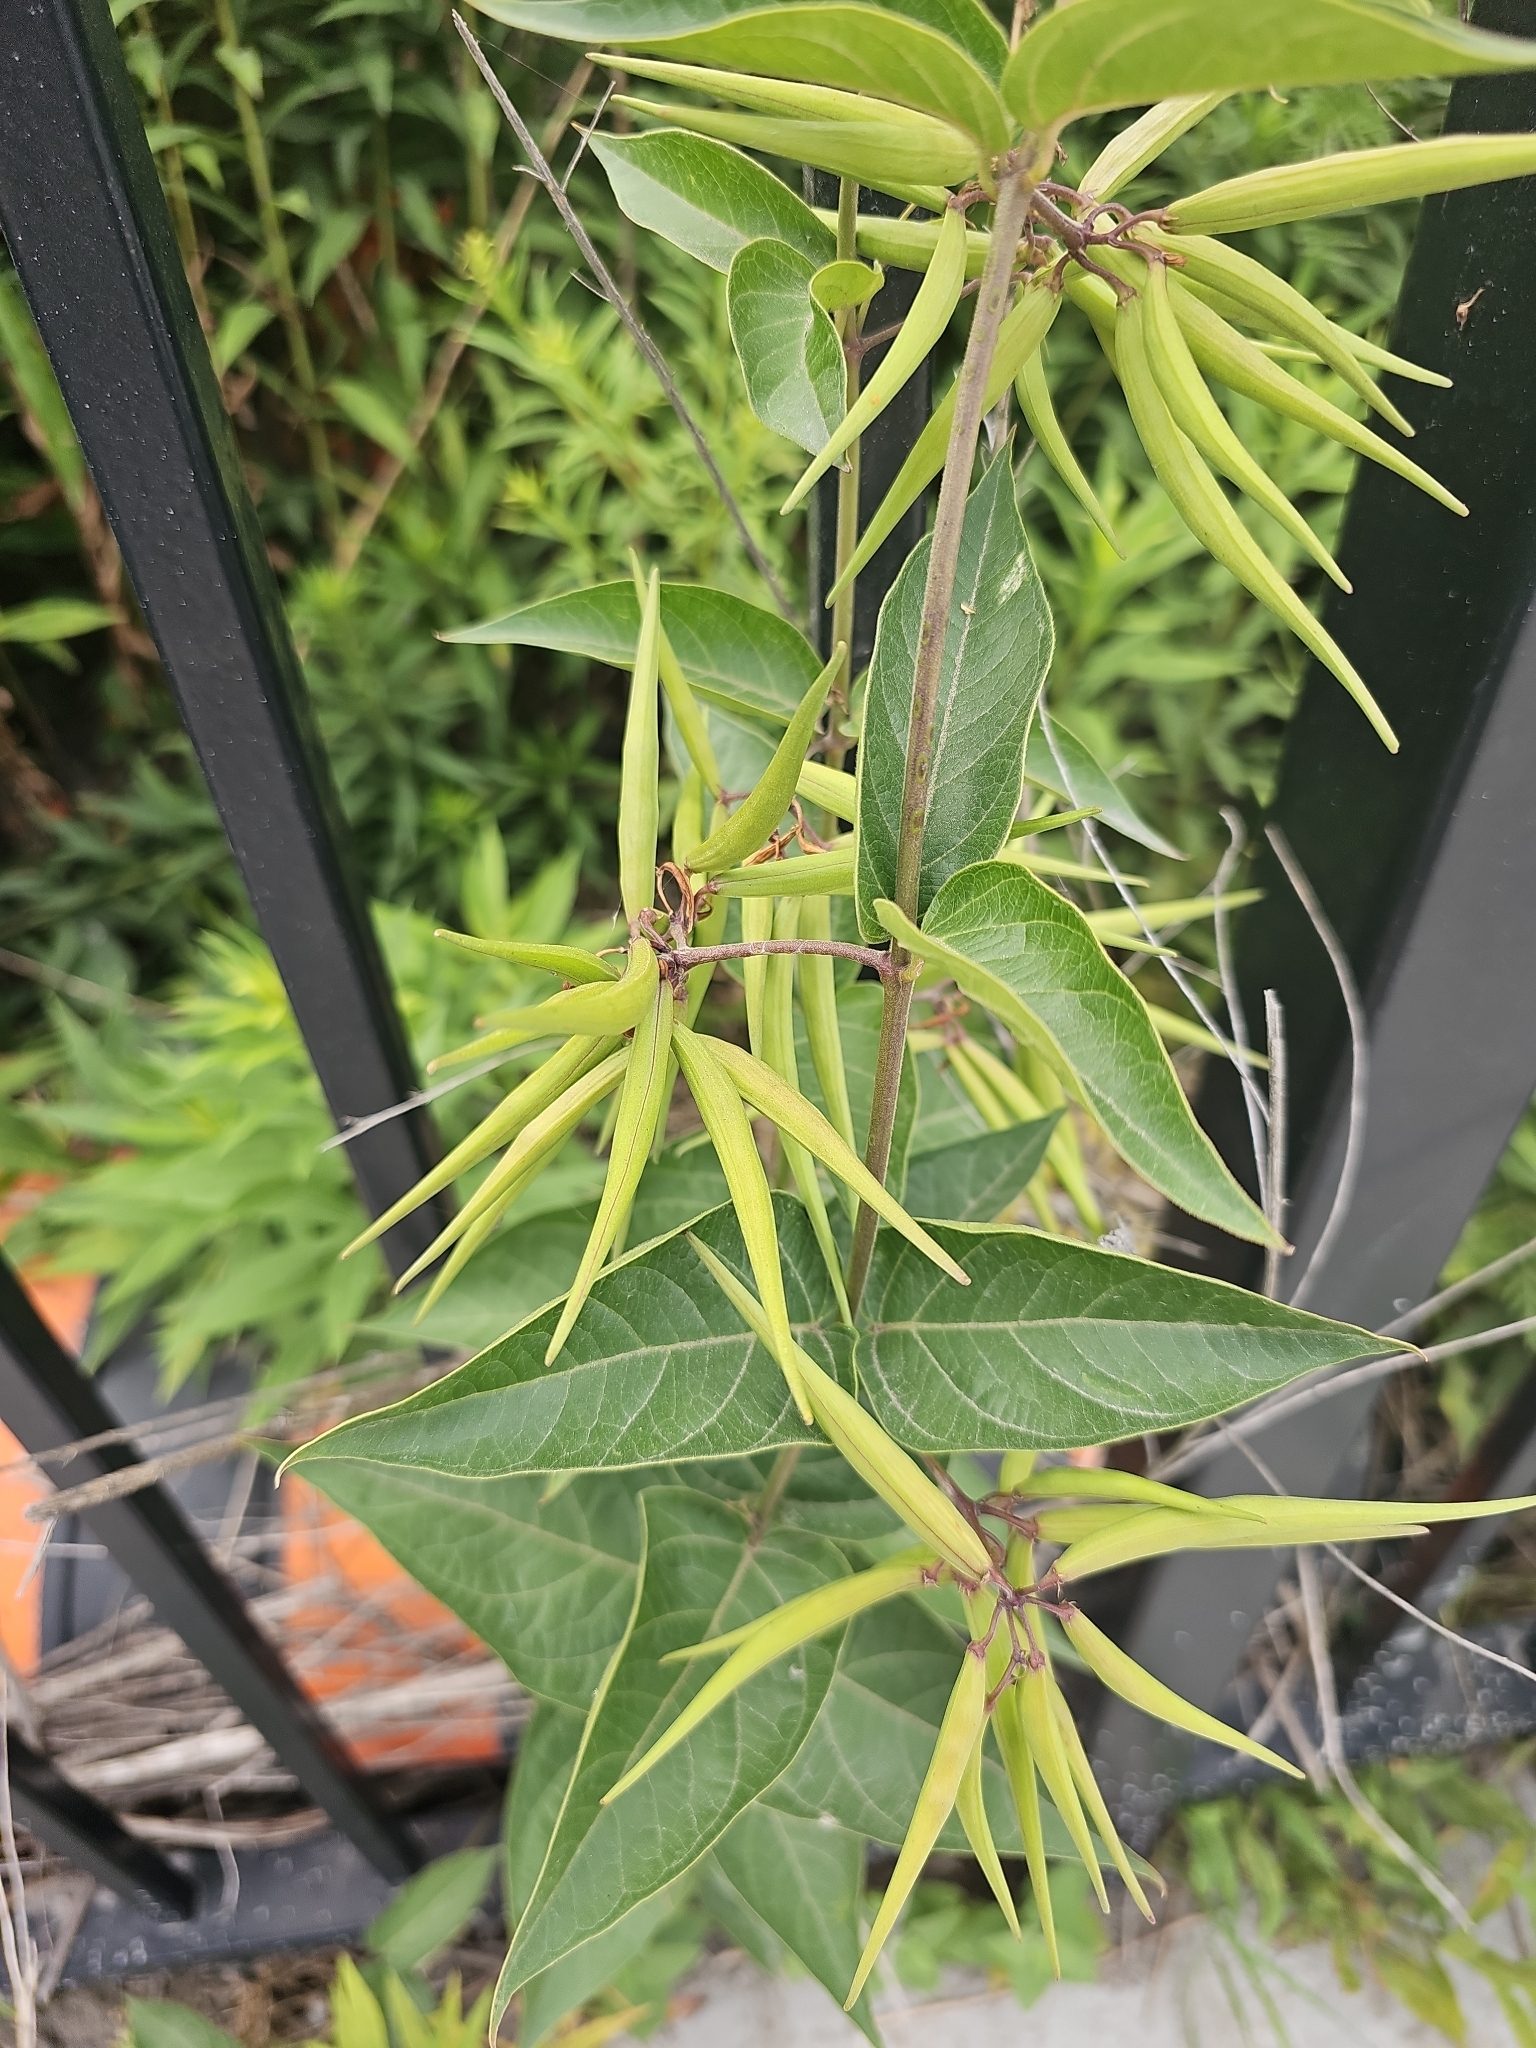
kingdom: Plantae
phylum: Tracheophyta
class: Magnoliopsida
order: Gentianales
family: Apocynaceae
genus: Vincetoxicum
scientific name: Vincetoxicum rossicum
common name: Dog-strangling vine
